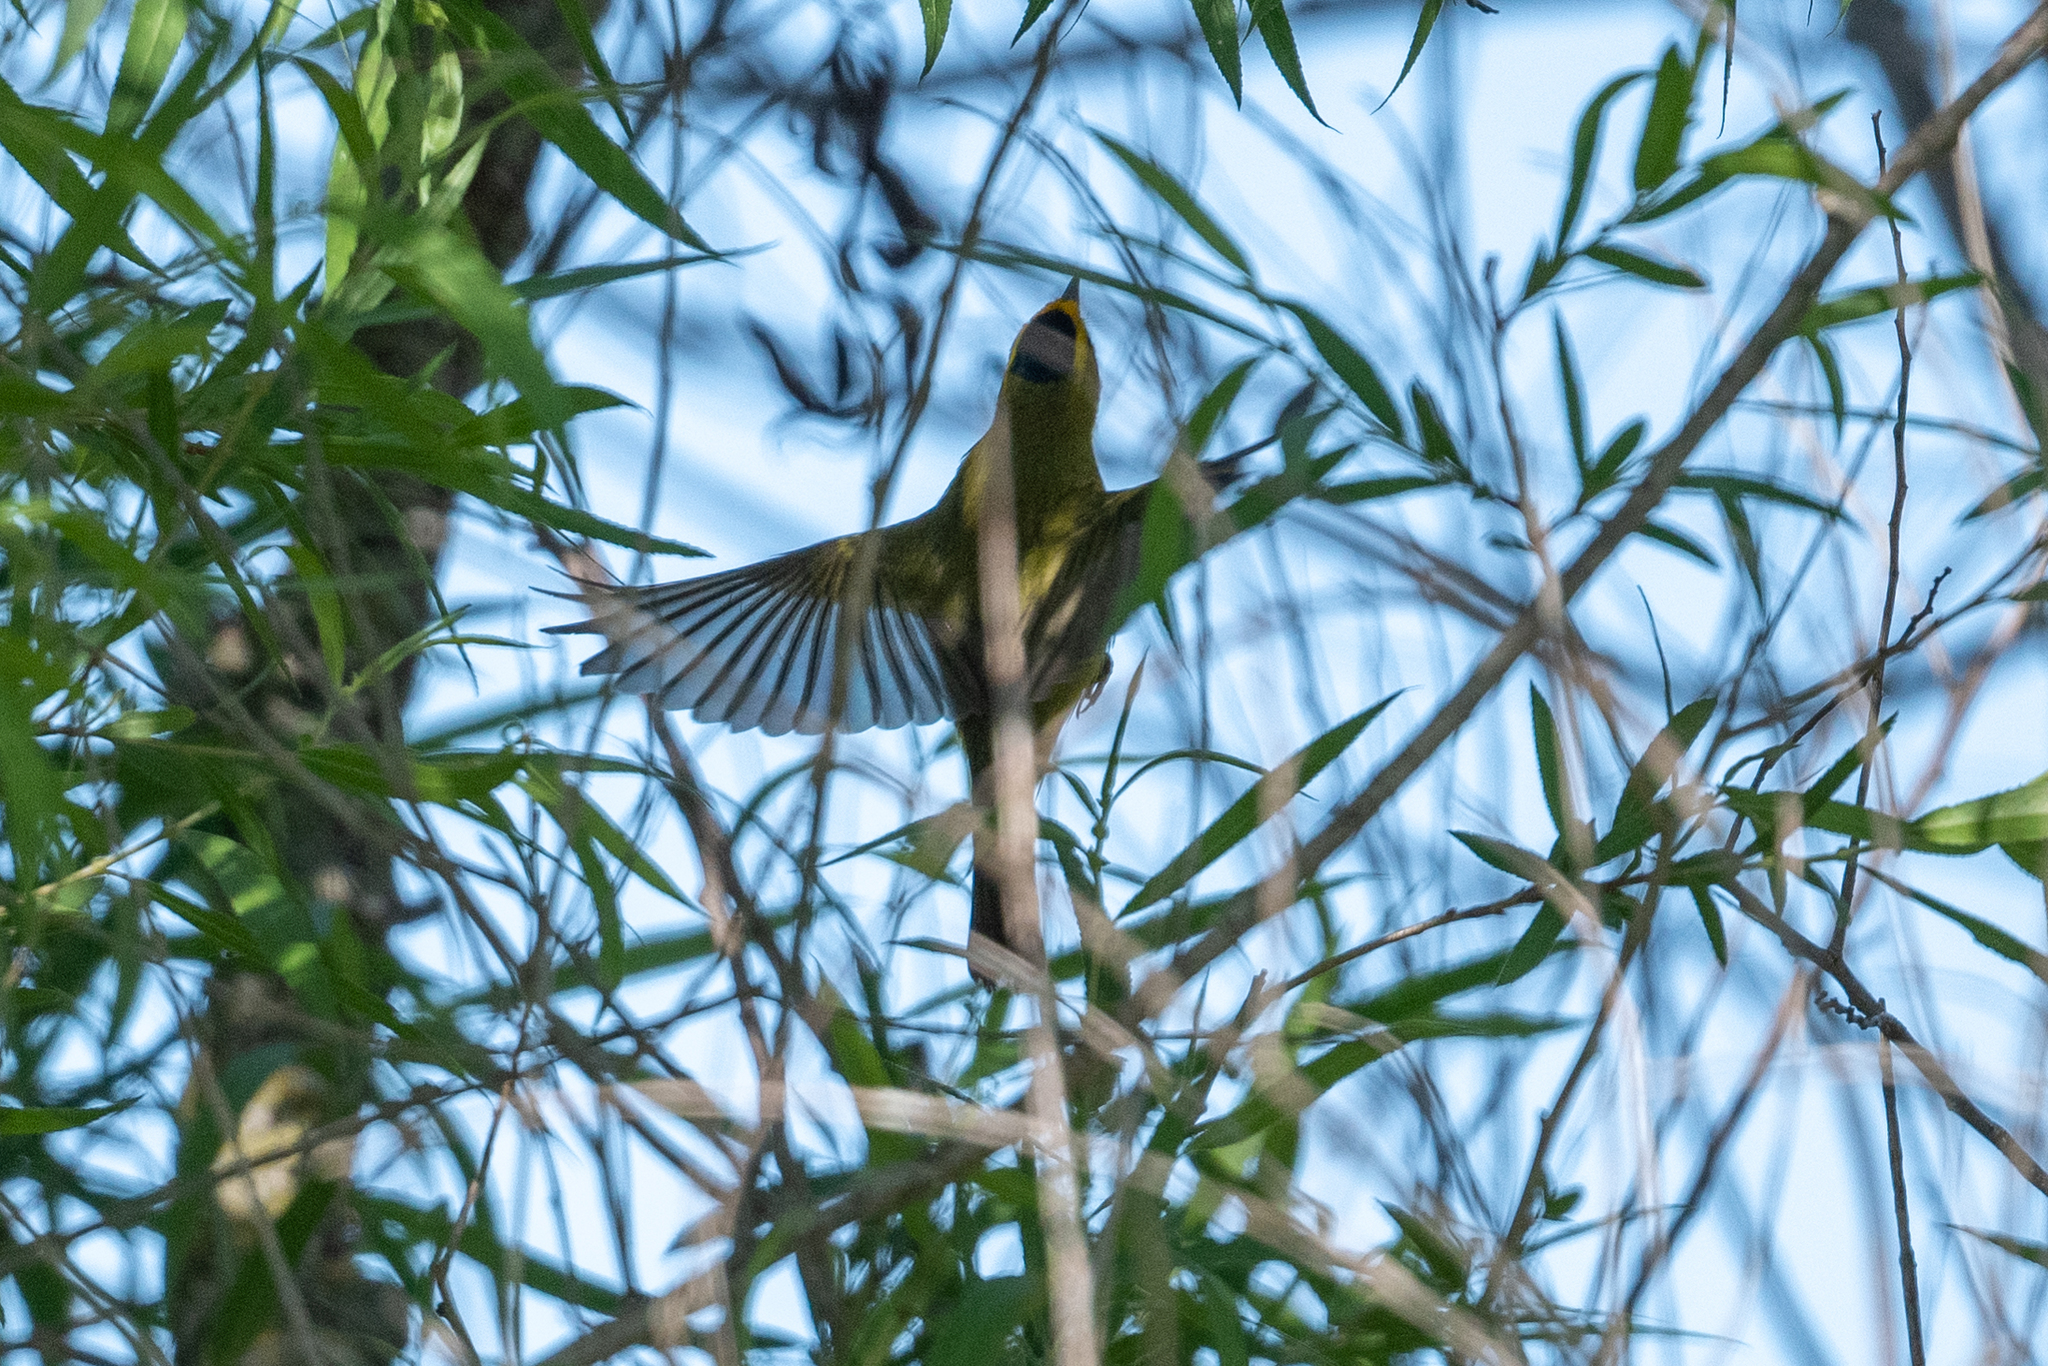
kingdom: Animalia
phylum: Chordata
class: Aves
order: Passeriformes
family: Parulidae
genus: Cardellina
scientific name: Cardellina pusilla
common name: Wilson's warbler
